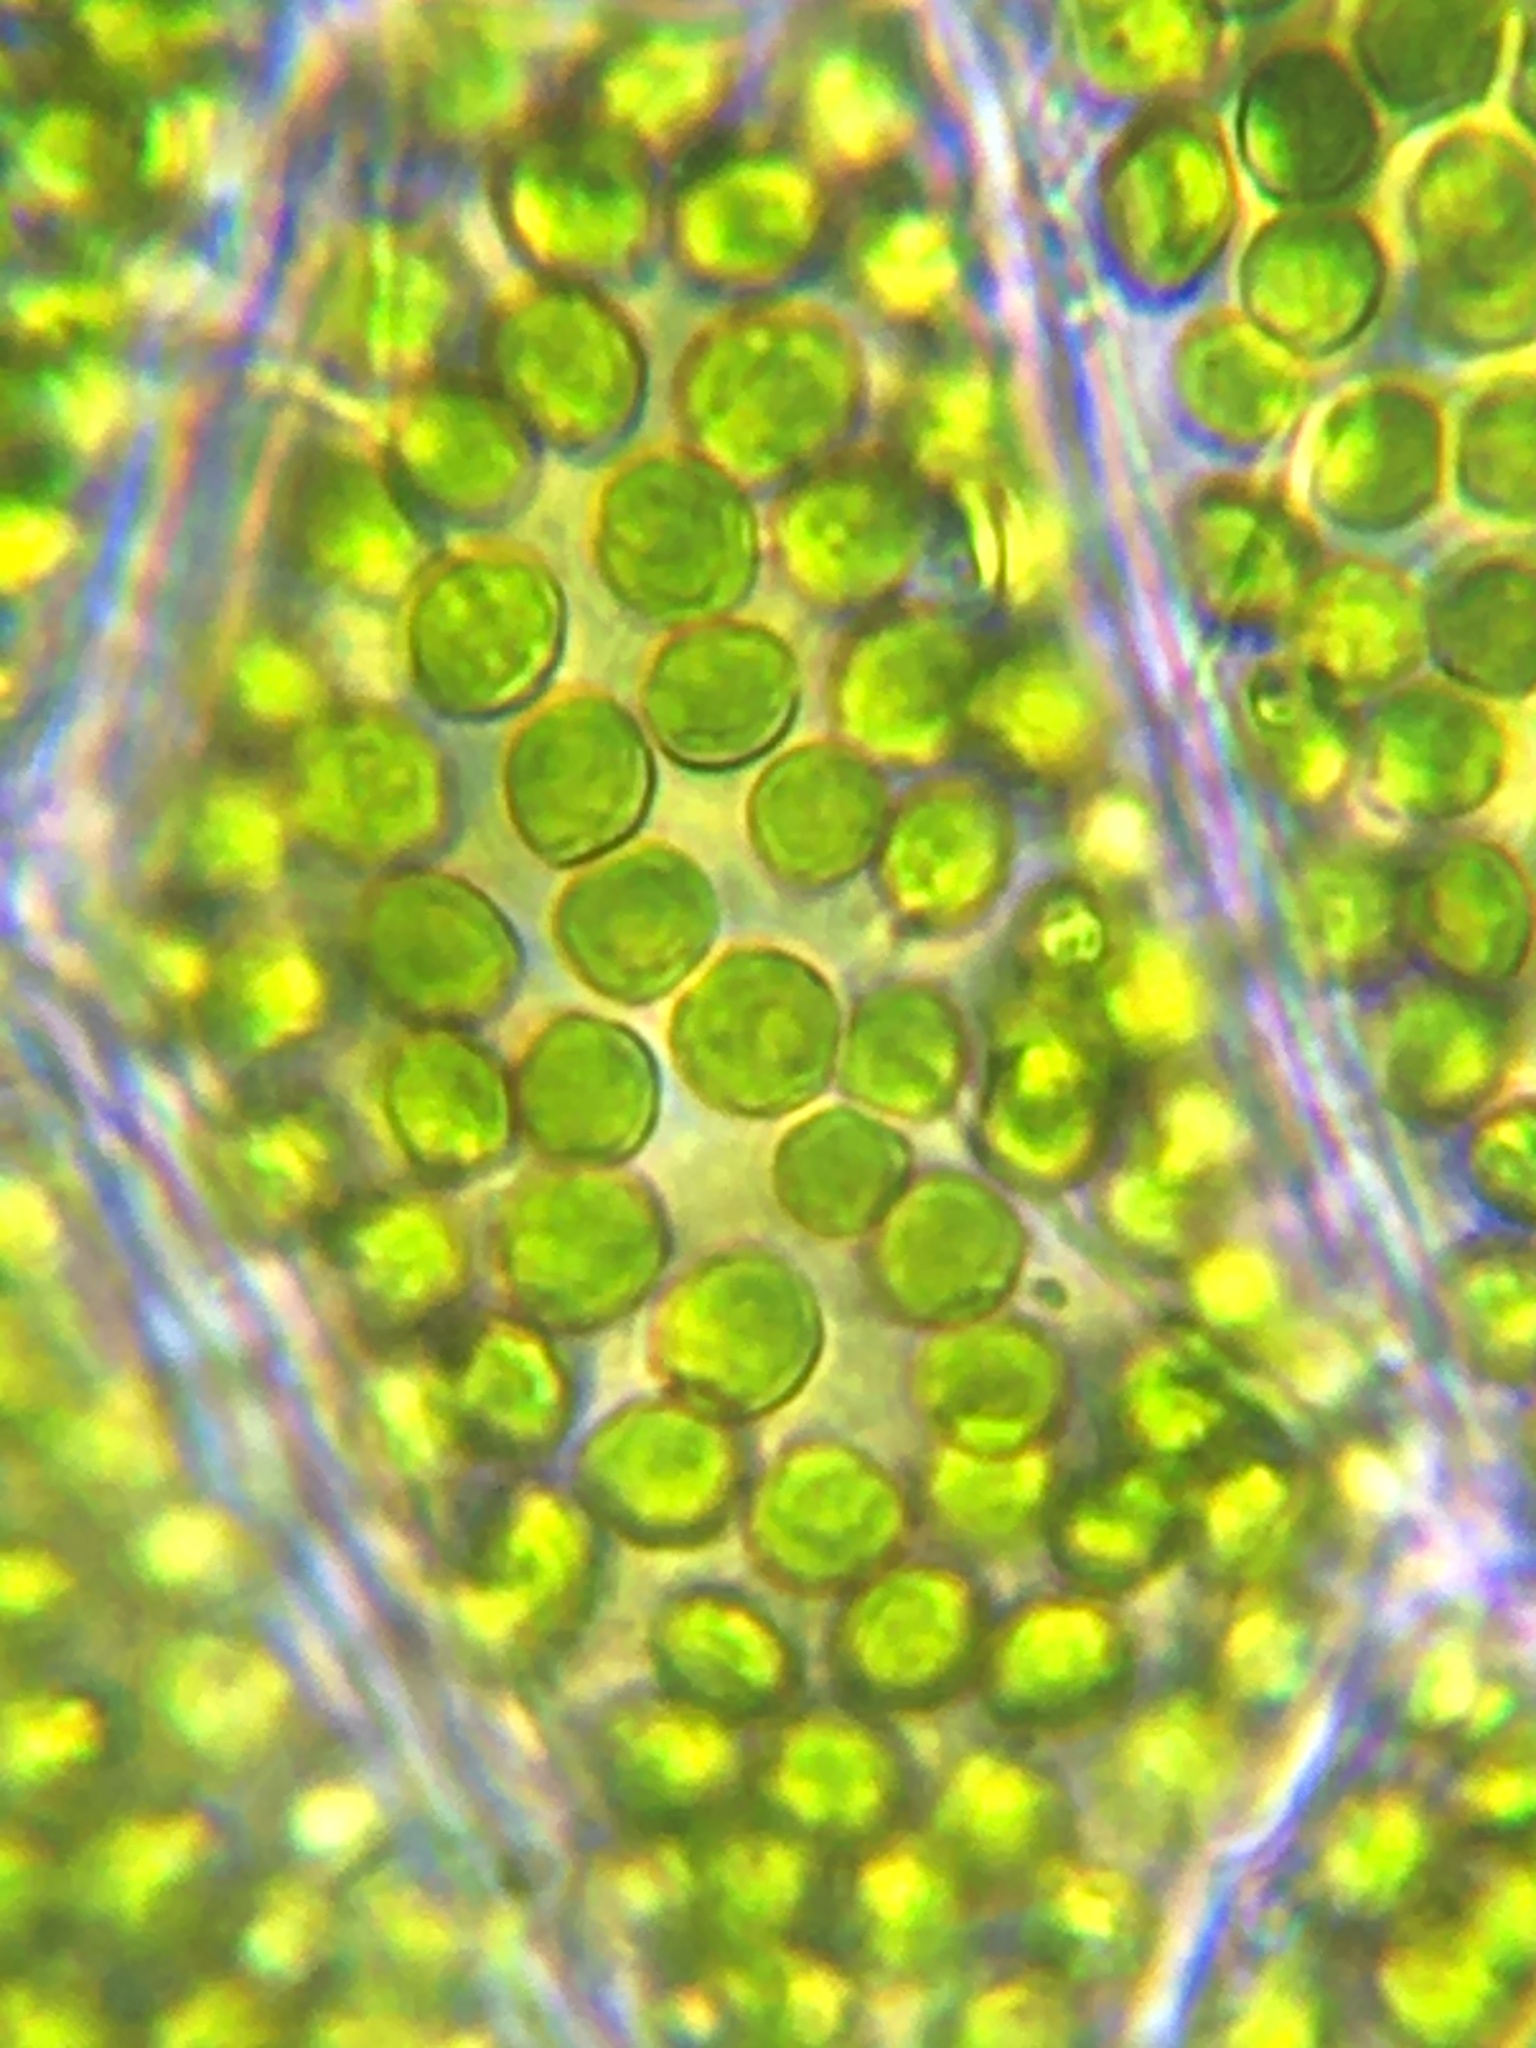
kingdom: Plantae
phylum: Tracheophyta
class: Polypodiopsida
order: Hymenophyllales
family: Hymenophyllaceae
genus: Vandenboschia
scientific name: Vandenboschia boschiana
